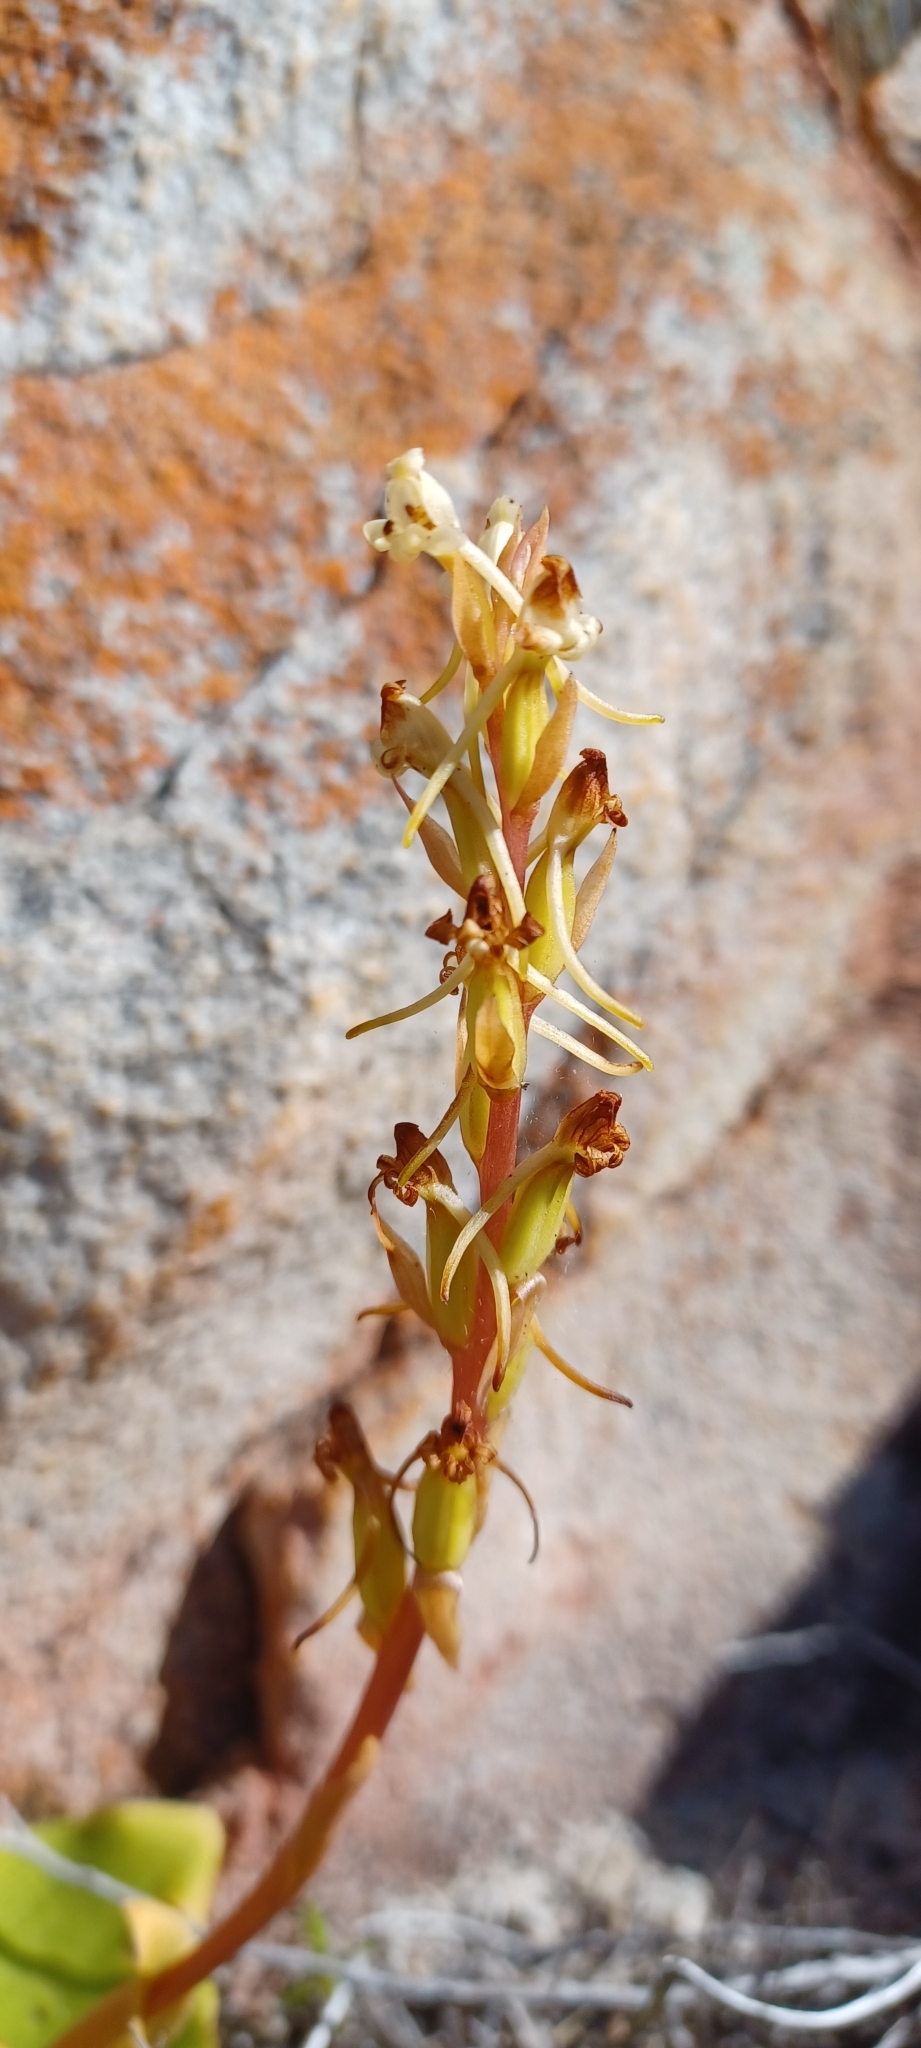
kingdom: Plantae
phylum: Tracheophyta
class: Liliopsida
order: Asparagales
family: Orchidaceae
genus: Satyrium
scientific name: Satyrium humile
